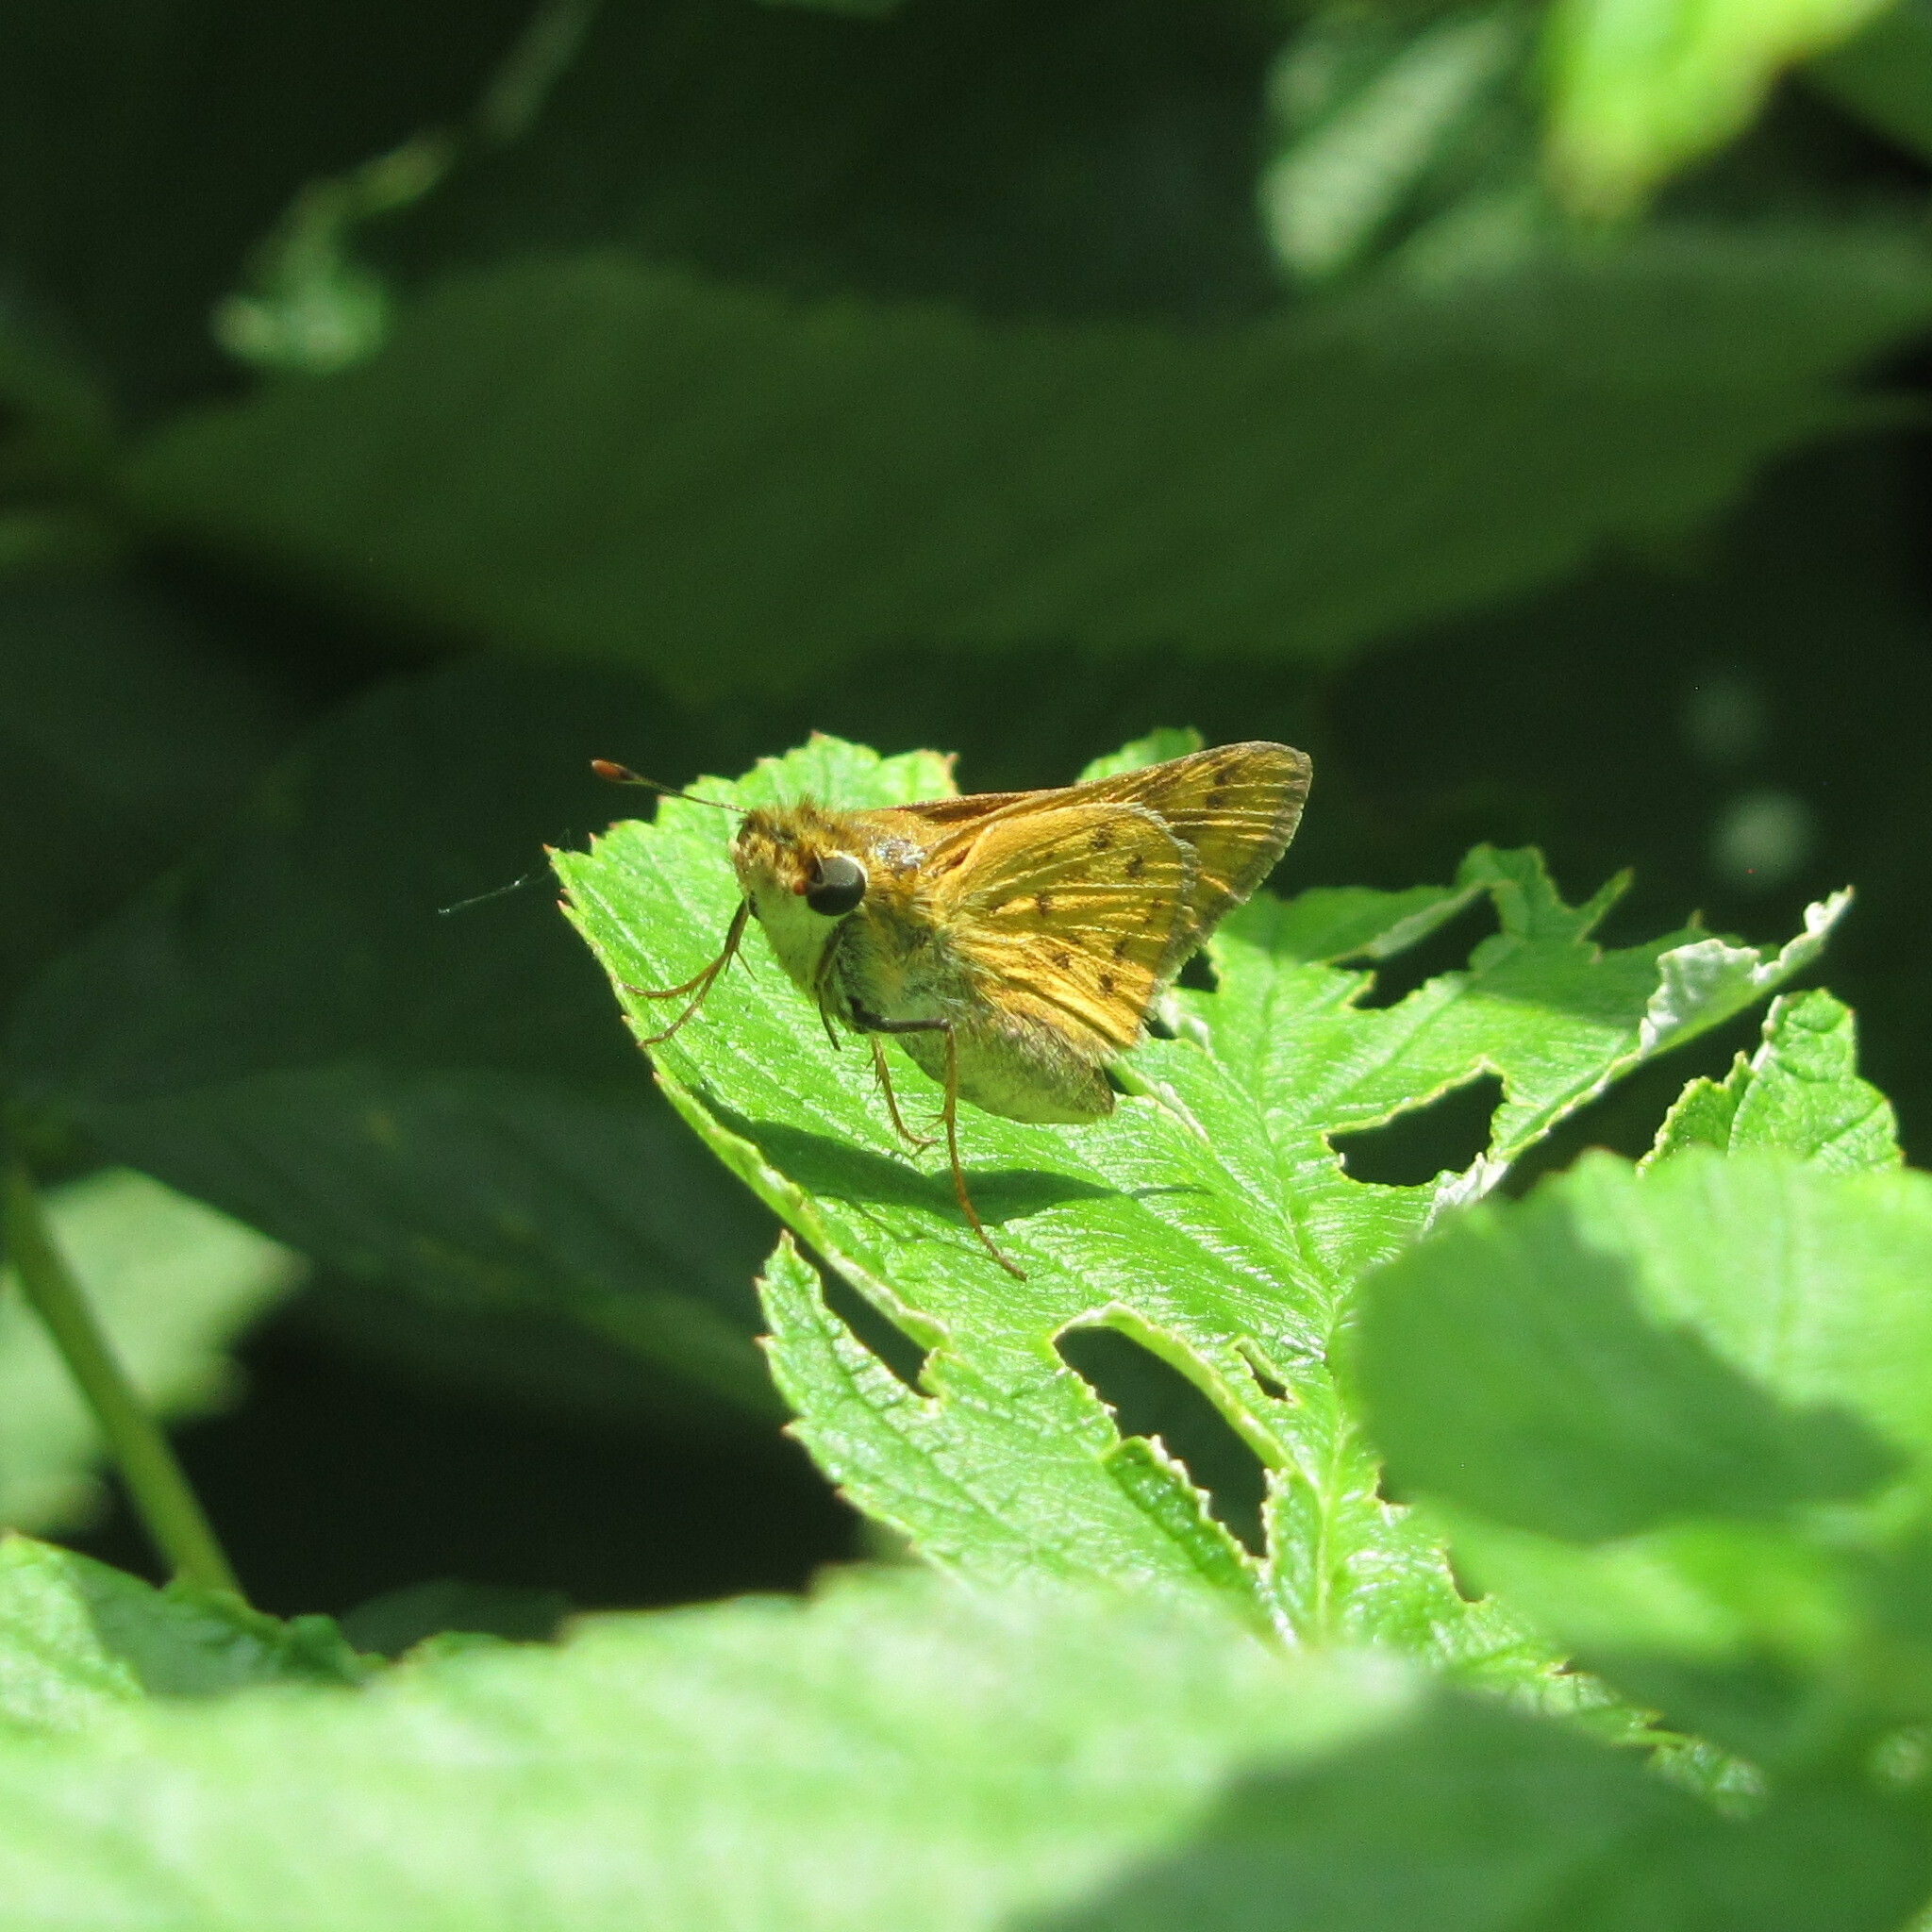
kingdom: Animalia
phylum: Arthropoda
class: Insecta
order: Lepidoptera
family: Hesperiidae
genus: Hylephila
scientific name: Hylephila phyleus
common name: Fiery skipper
